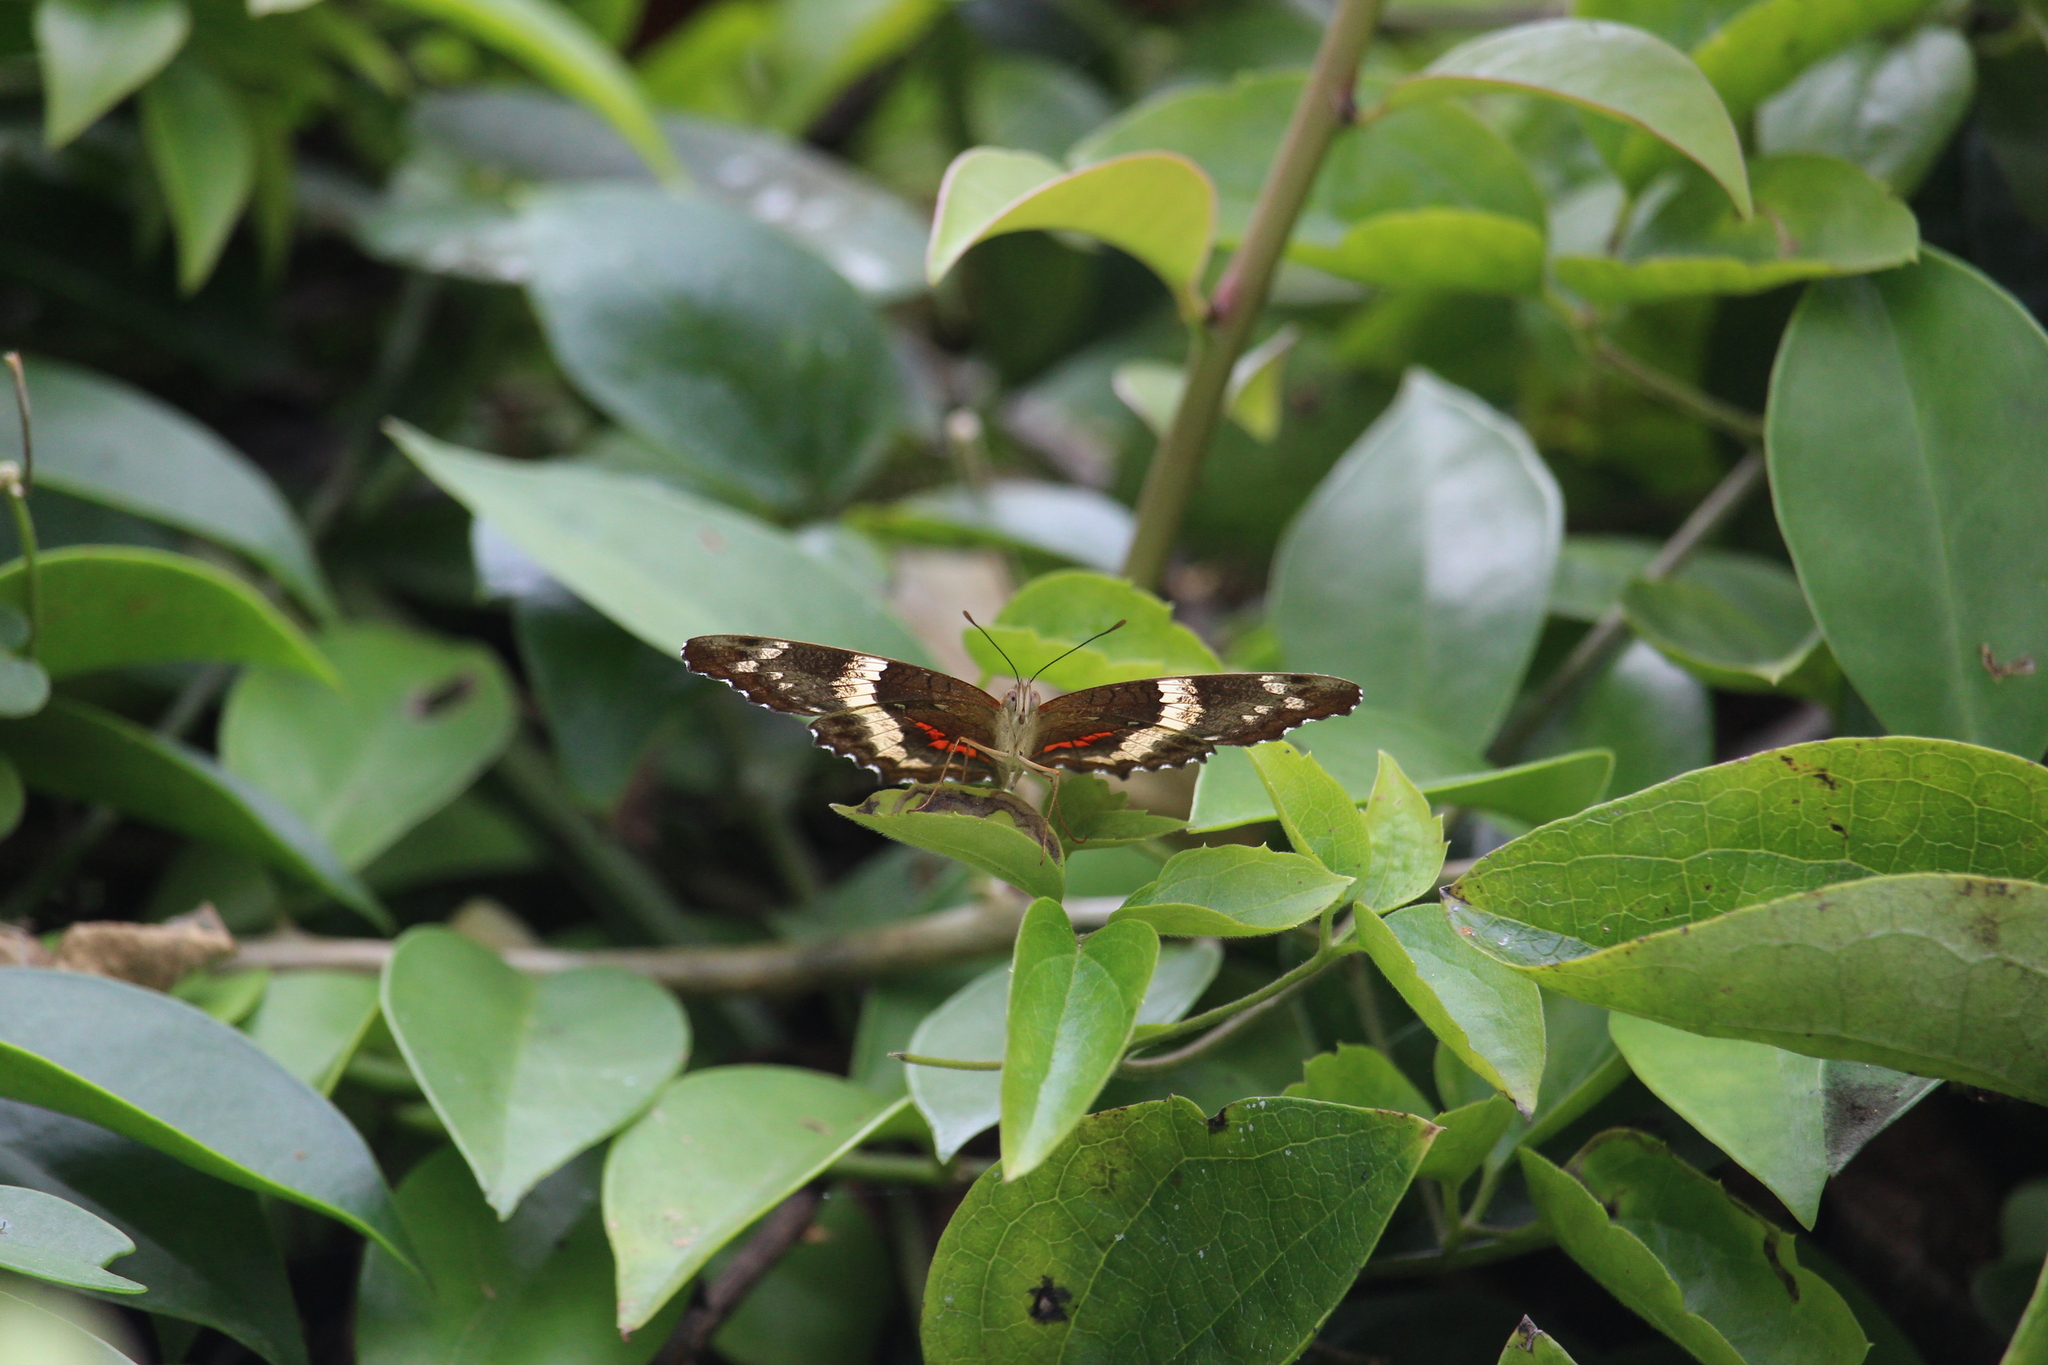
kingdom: Animalia
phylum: Arthropoda
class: Insecta
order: Lepidoptera
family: Nymphalidae
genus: Anartia
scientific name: Anartia fatima
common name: Banded peacock
